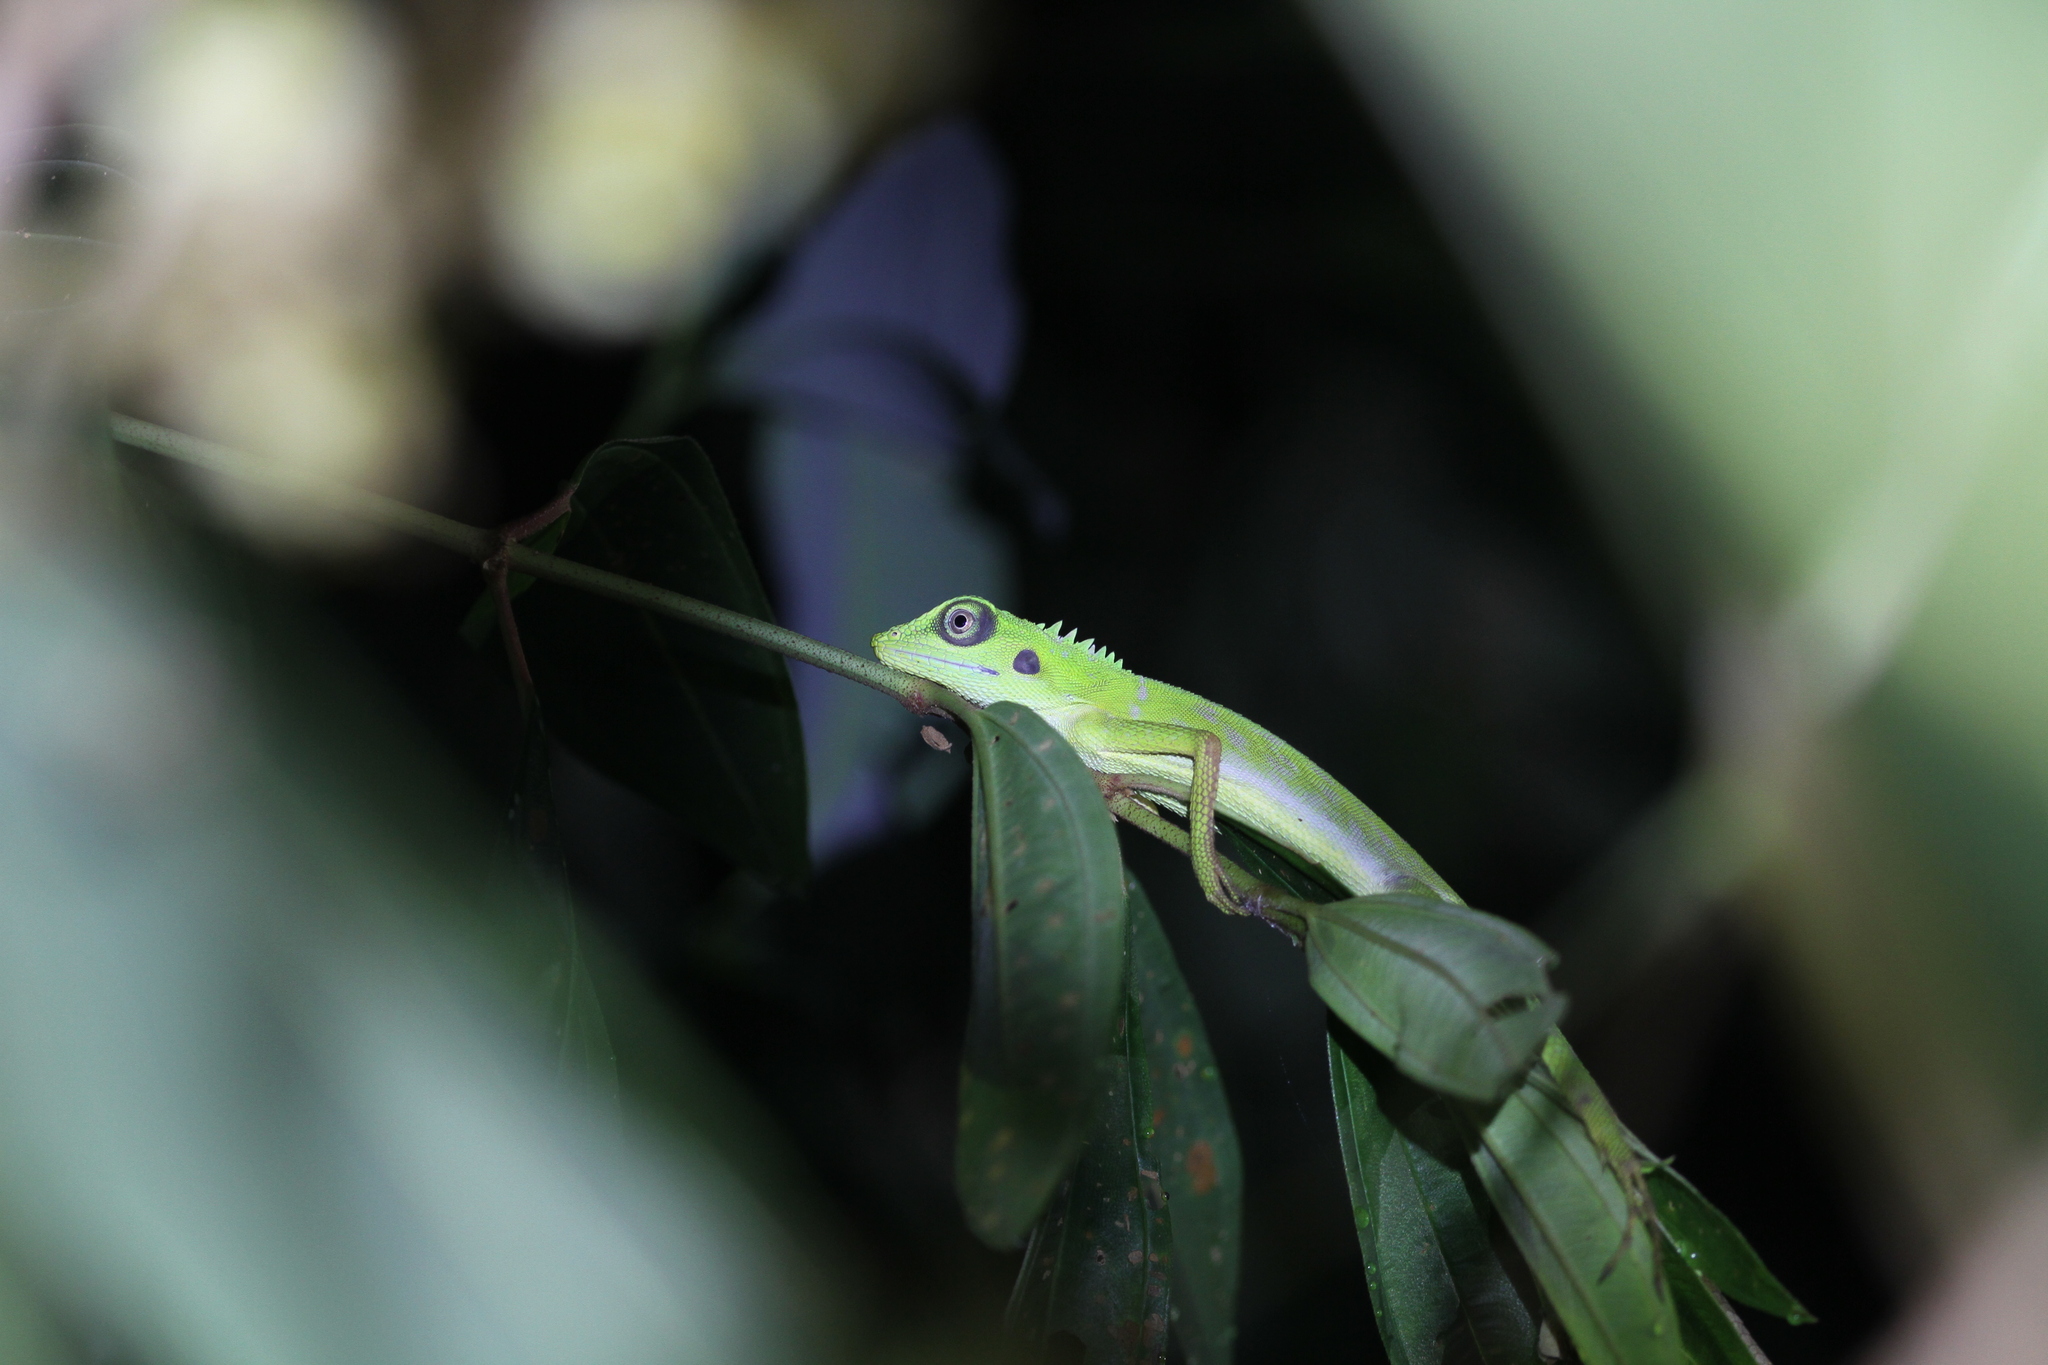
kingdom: Animalia
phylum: Chordata
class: Squamata
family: Agamidae
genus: Bronchocela
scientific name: Bronchocela cristatella
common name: Green crested lizard
